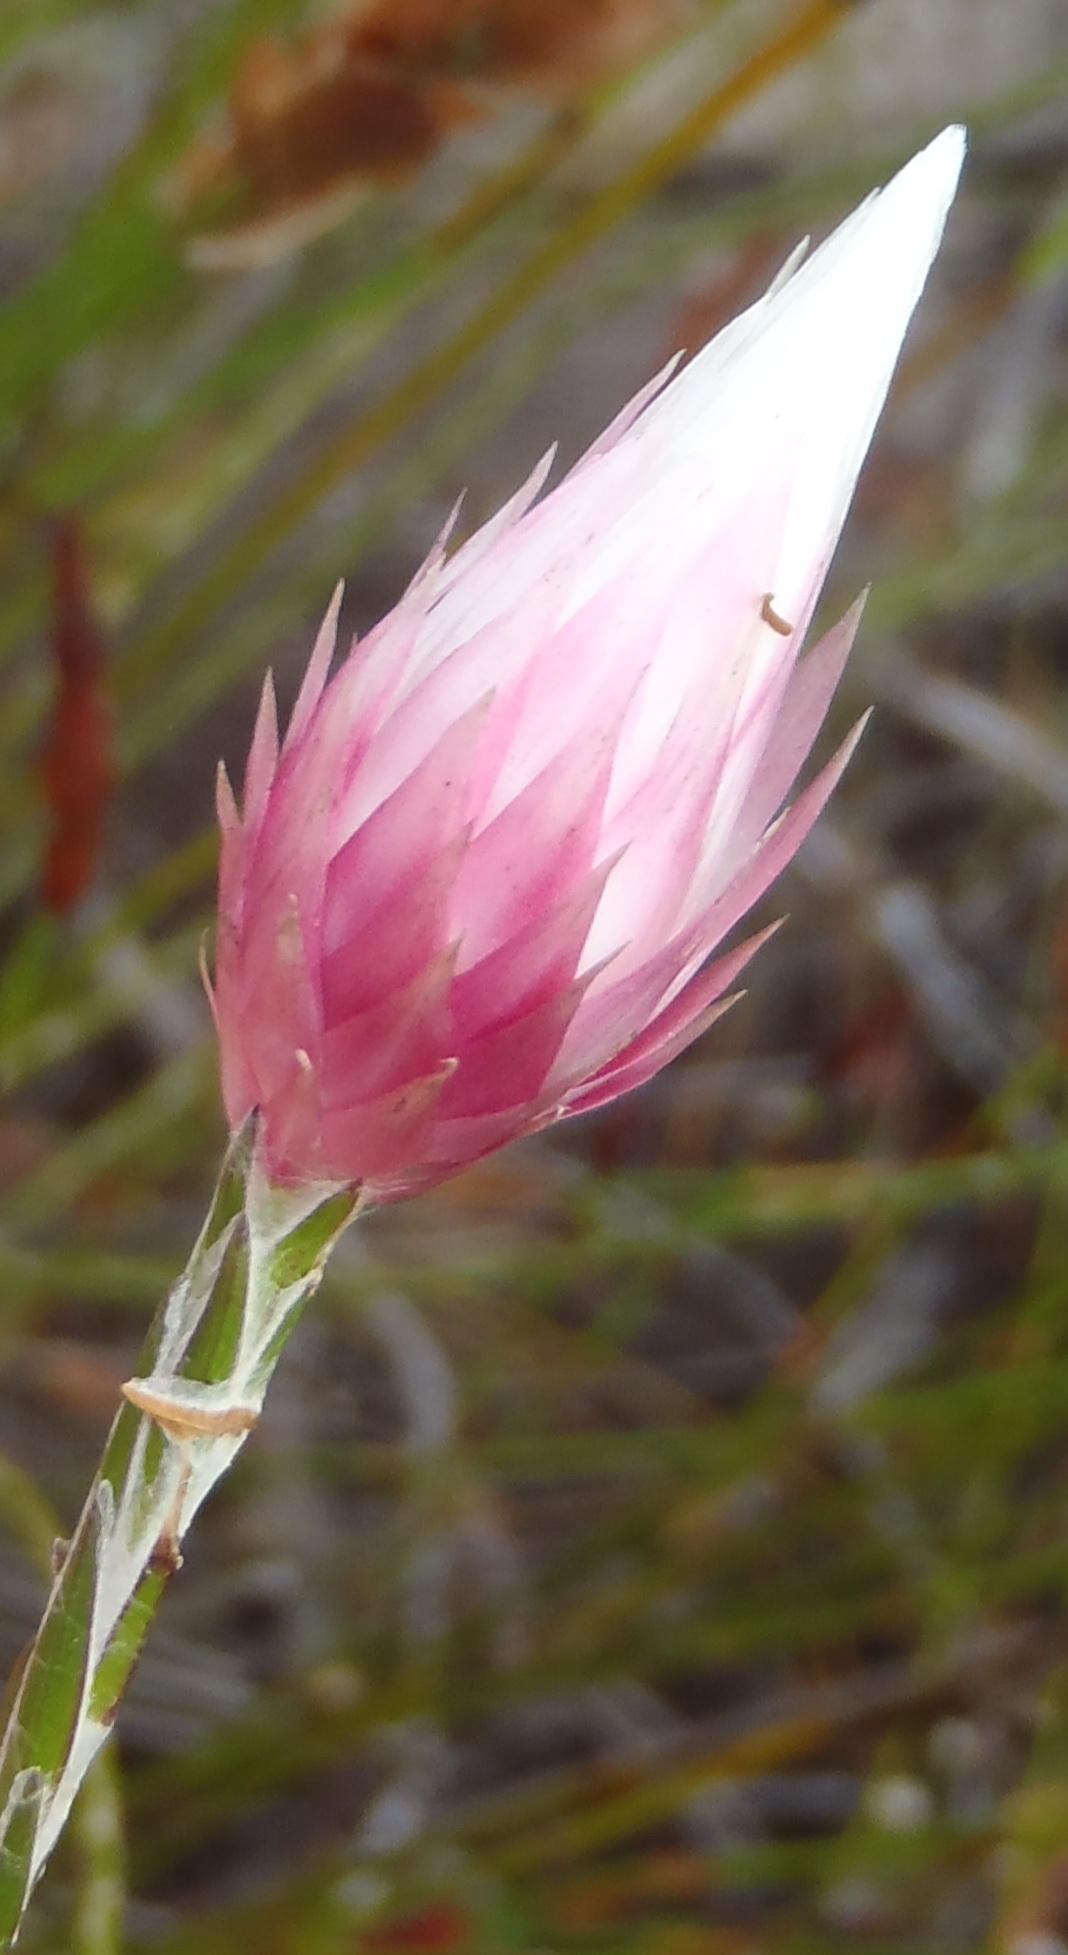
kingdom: Plantae
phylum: Tracheophyta
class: Magnoliopsida
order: Asterales
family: Asteraceae
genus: Edmondia
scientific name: Edmondia sesamoides
